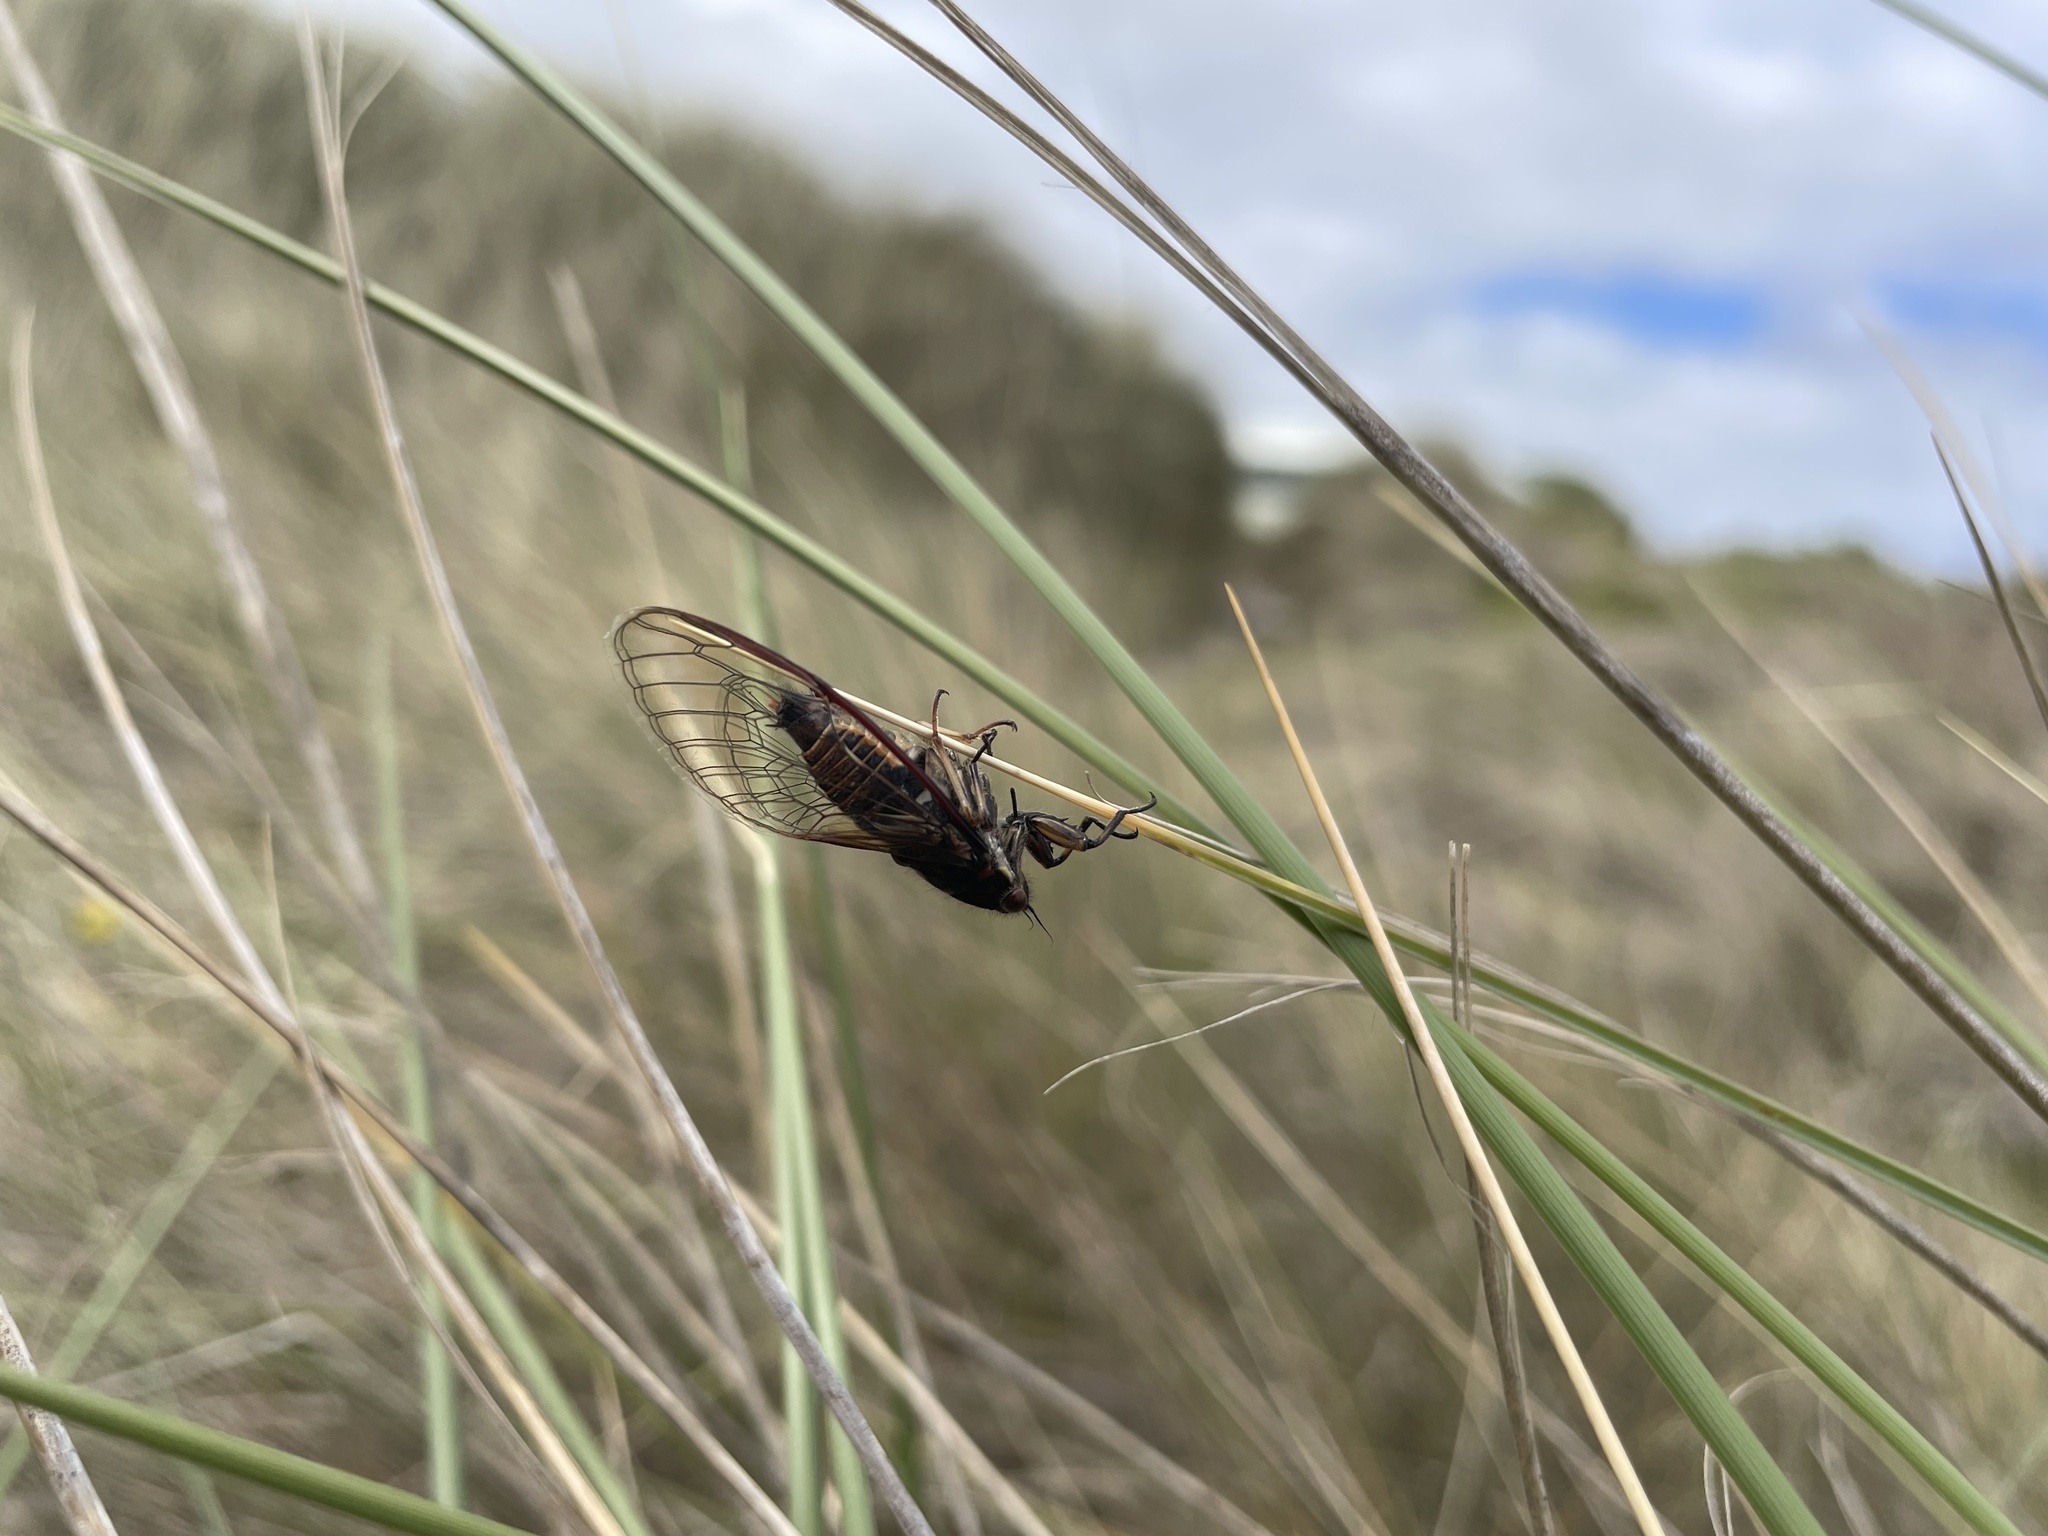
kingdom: Animalia
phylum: Arthropoda
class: Insecta
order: Hemiptera
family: Cicadidae
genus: Kikihia
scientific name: Kikihia longula
